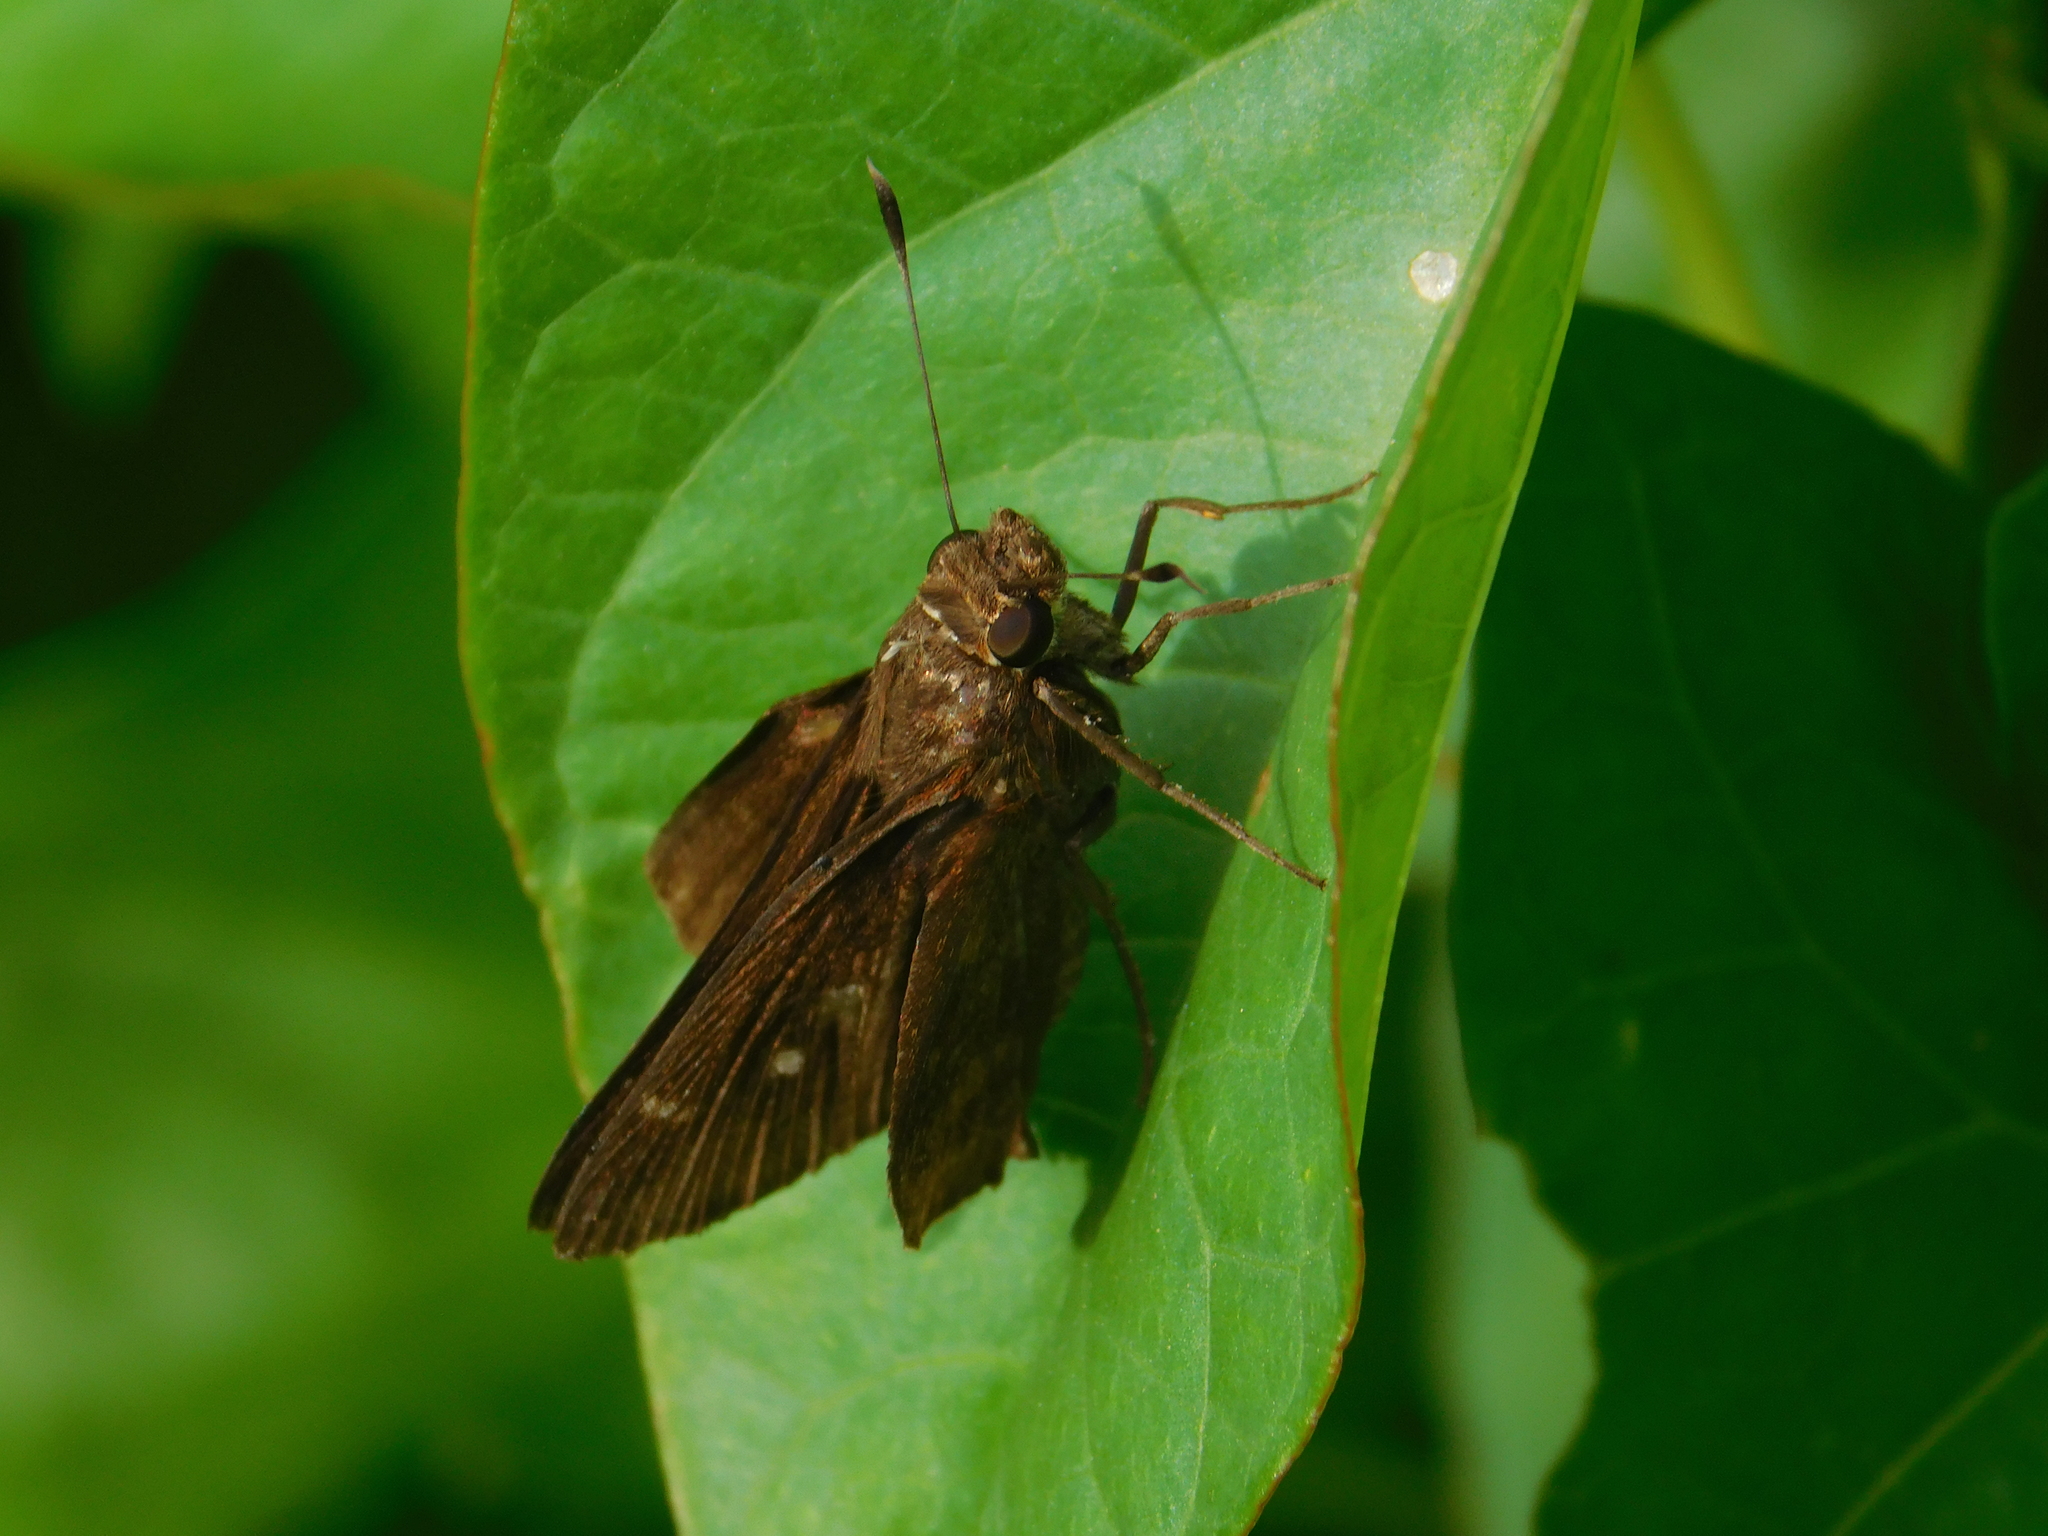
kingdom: Animalia
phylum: Arthropoda
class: Insecta
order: Lepidoptera
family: Hesperiidae
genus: Quinta
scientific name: Quinta cannae
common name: Canna skipper
